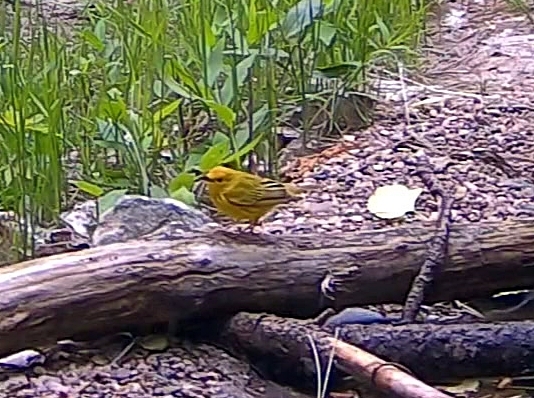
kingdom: Animalia
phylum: Chordata
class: Aves
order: Passeriformes
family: Parulidae
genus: Setophaga
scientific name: Setophaga petechia
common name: Yellow warbler
